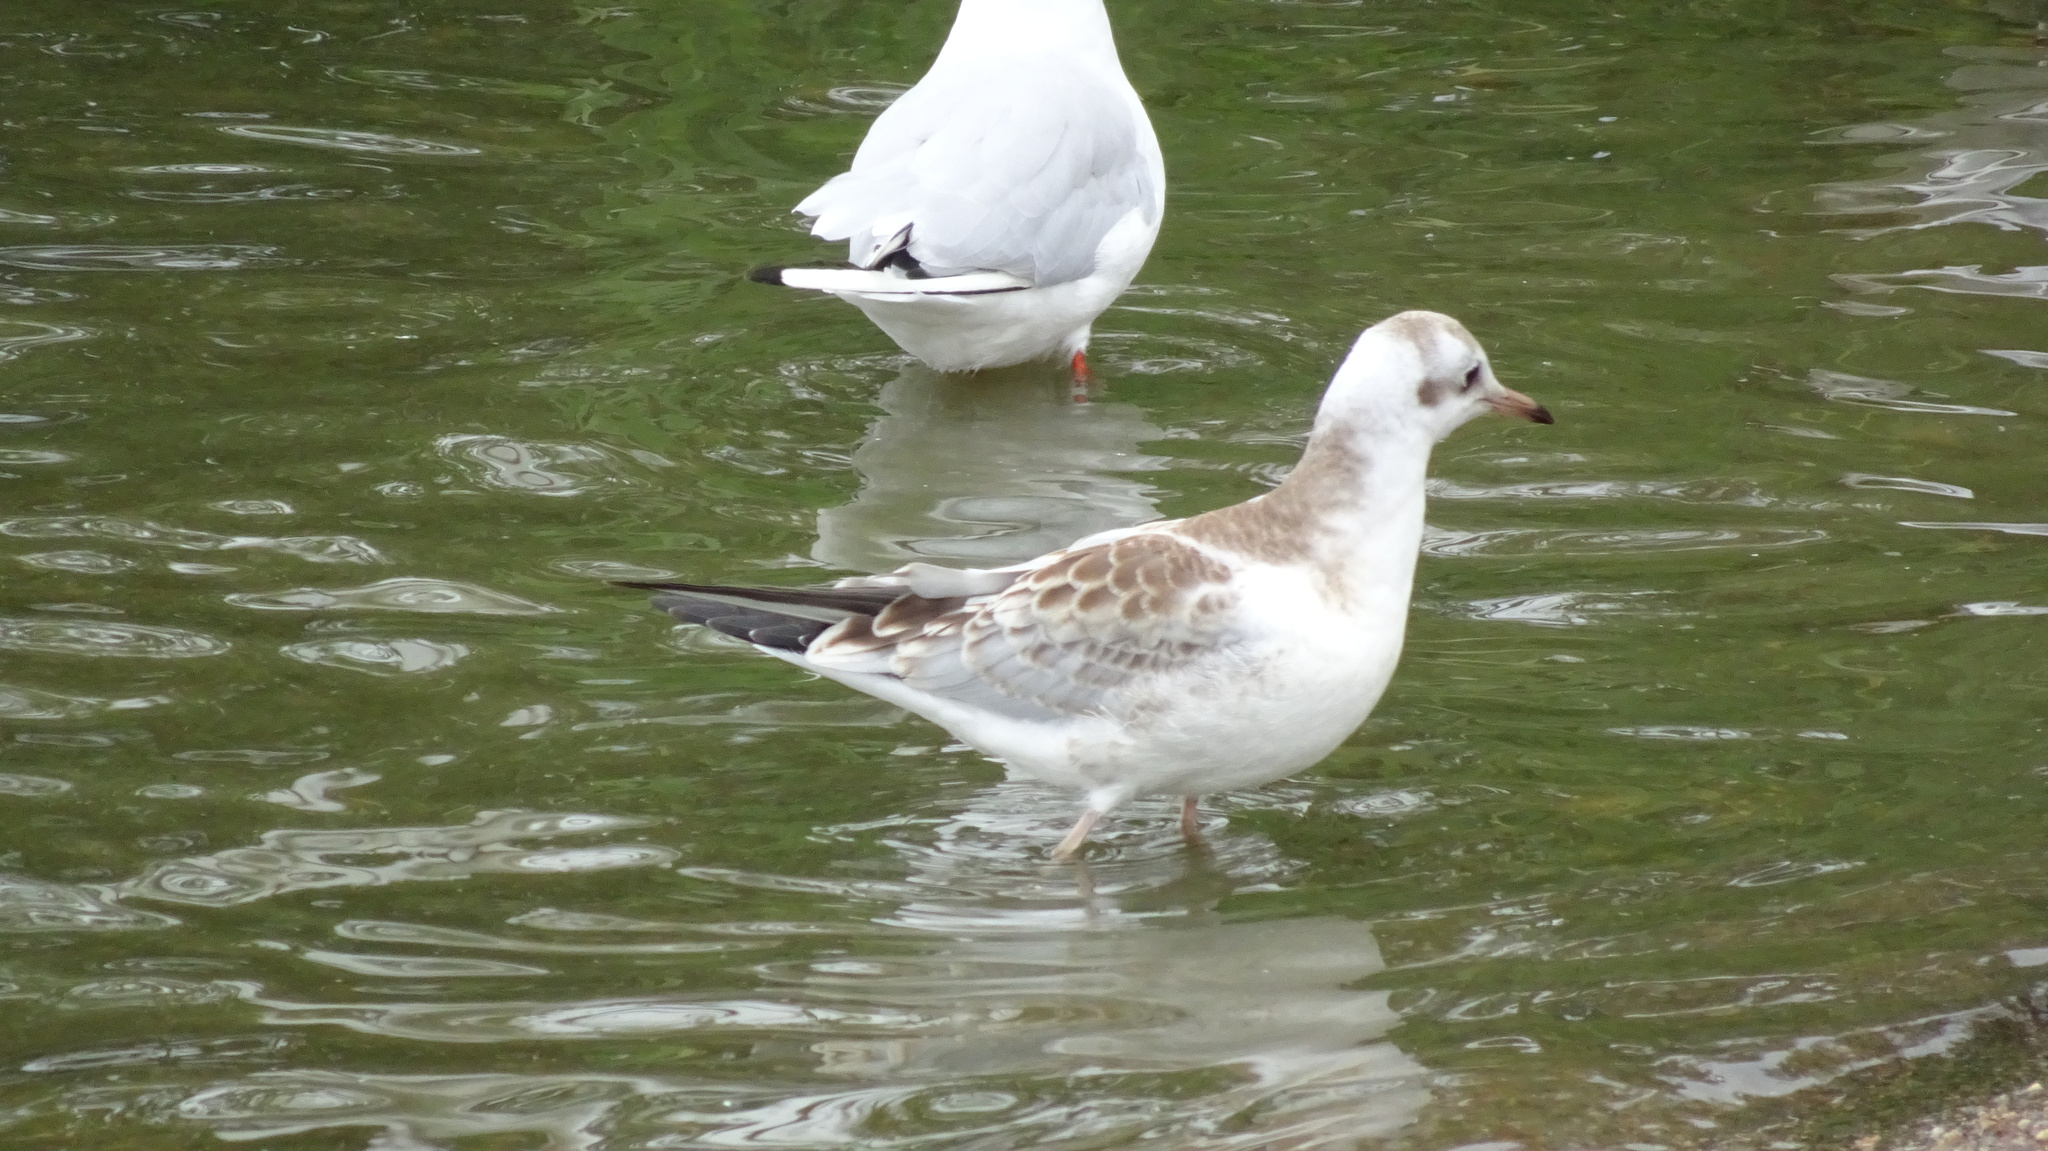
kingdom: Animalia
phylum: Chordata
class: Aves
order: Charadriiformes
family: Laridae
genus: Chroicocephalus
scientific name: Chroicocephalus ridibundus
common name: Black-headed gull
